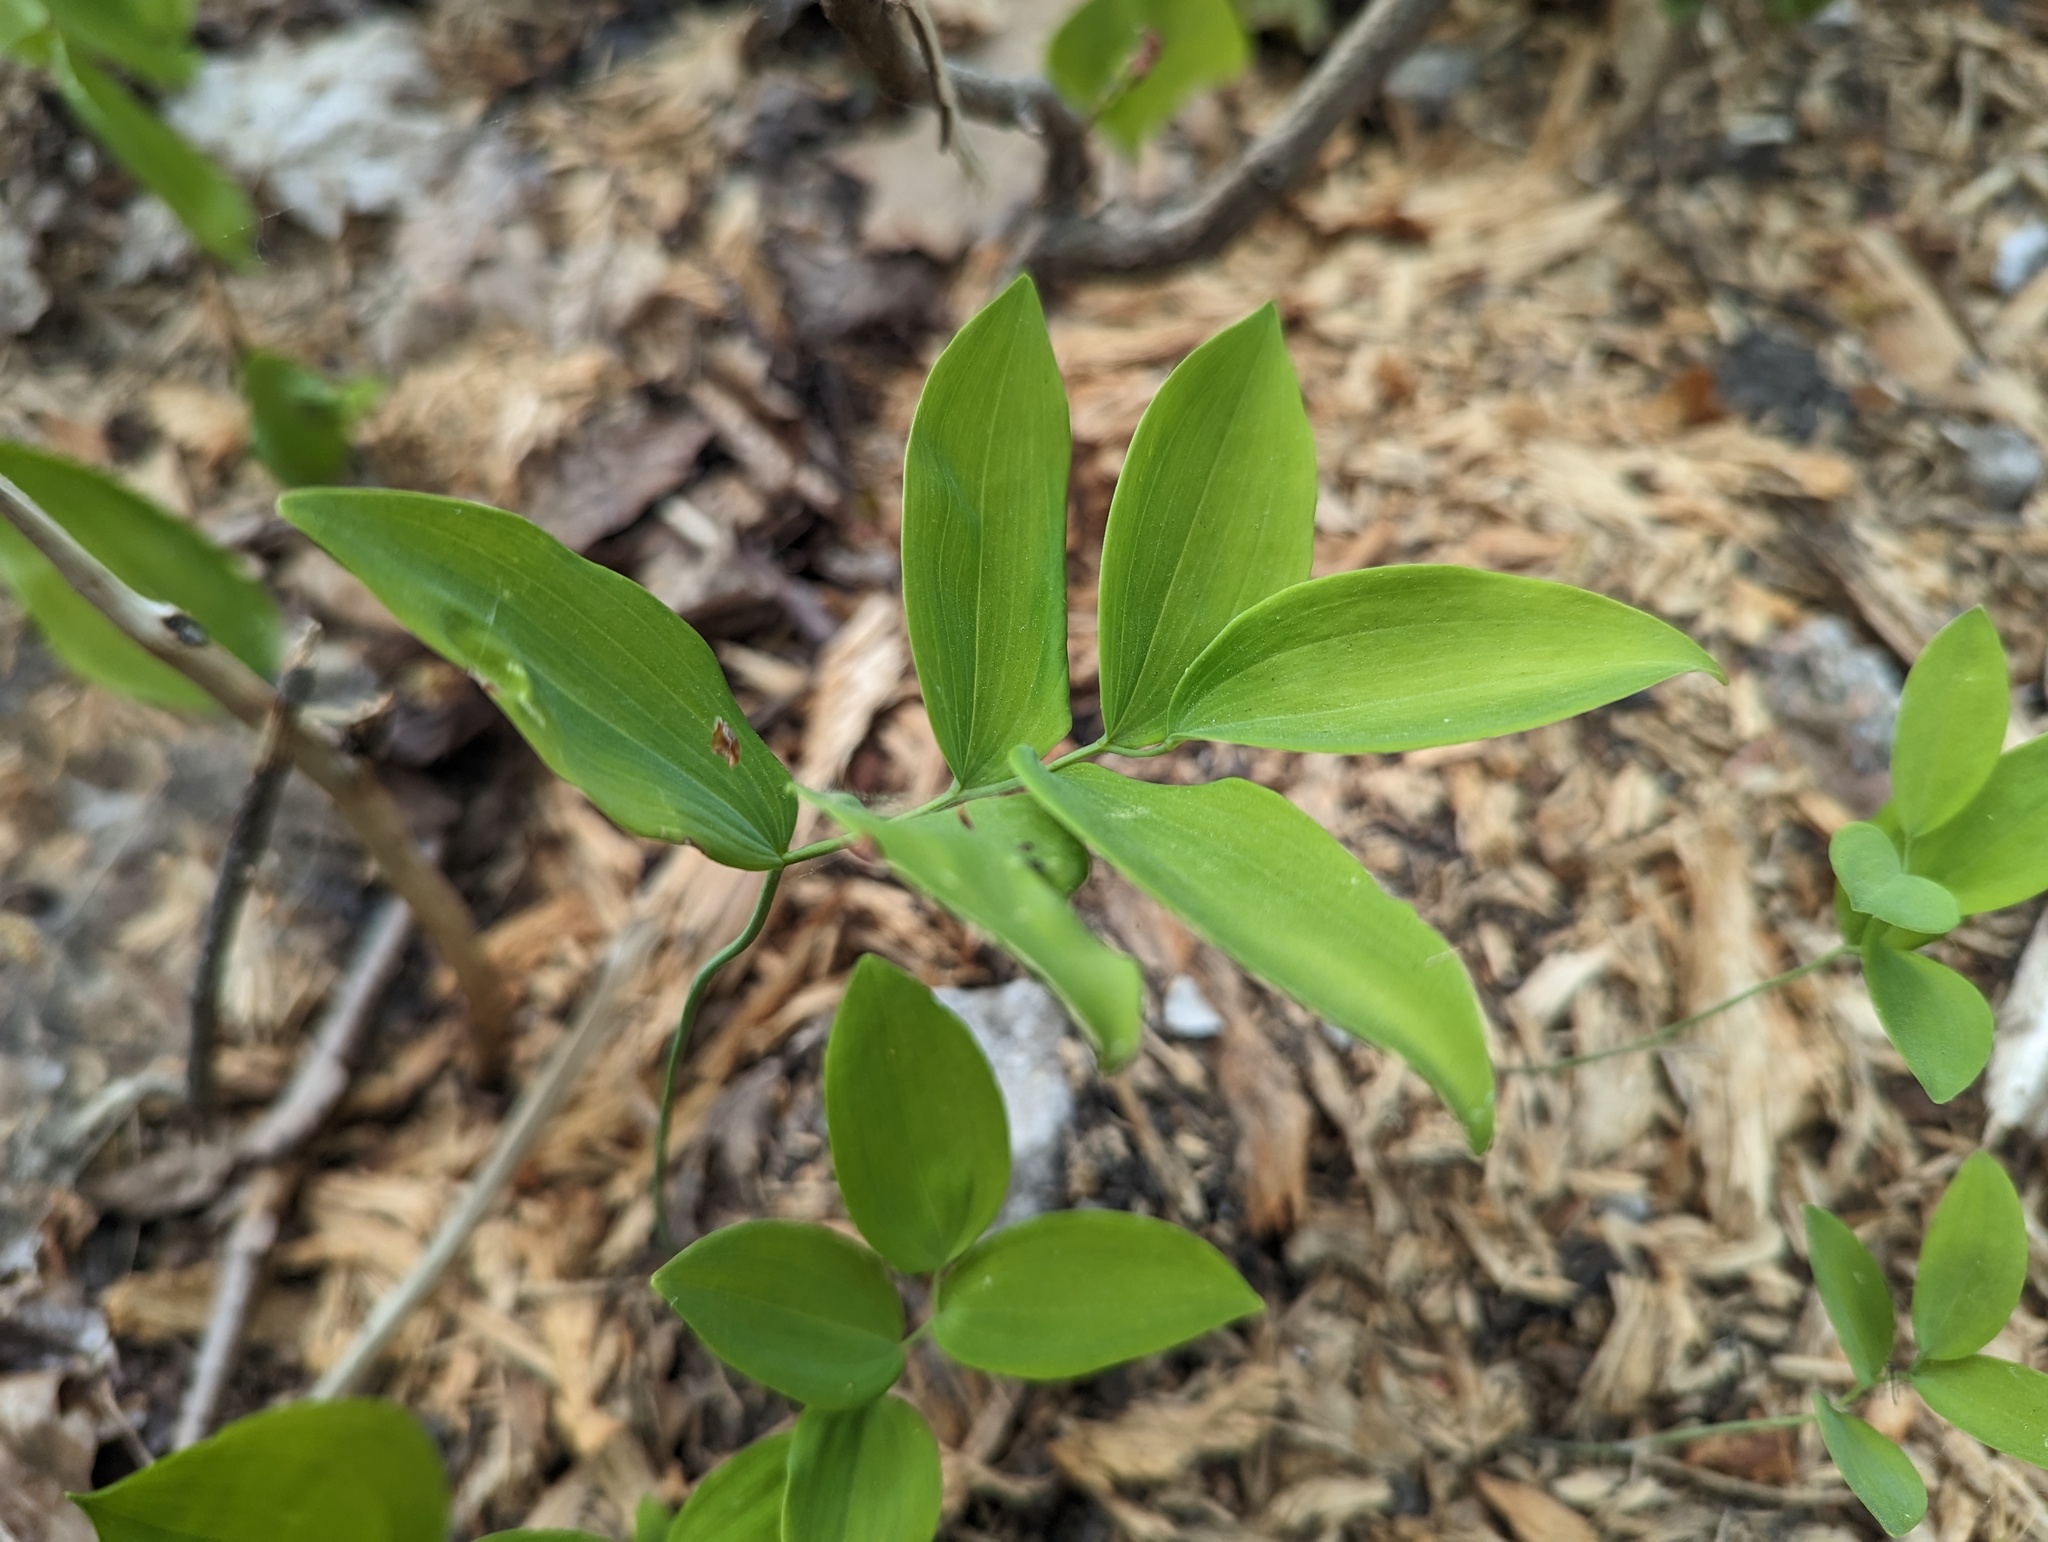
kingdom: Plantae
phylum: Tracheophyta
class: Liliopsida
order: Asparagales
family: Asparagaceae
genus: Polygonatum
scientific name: Polygonatum pubescens
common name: Downy solomon's seal
